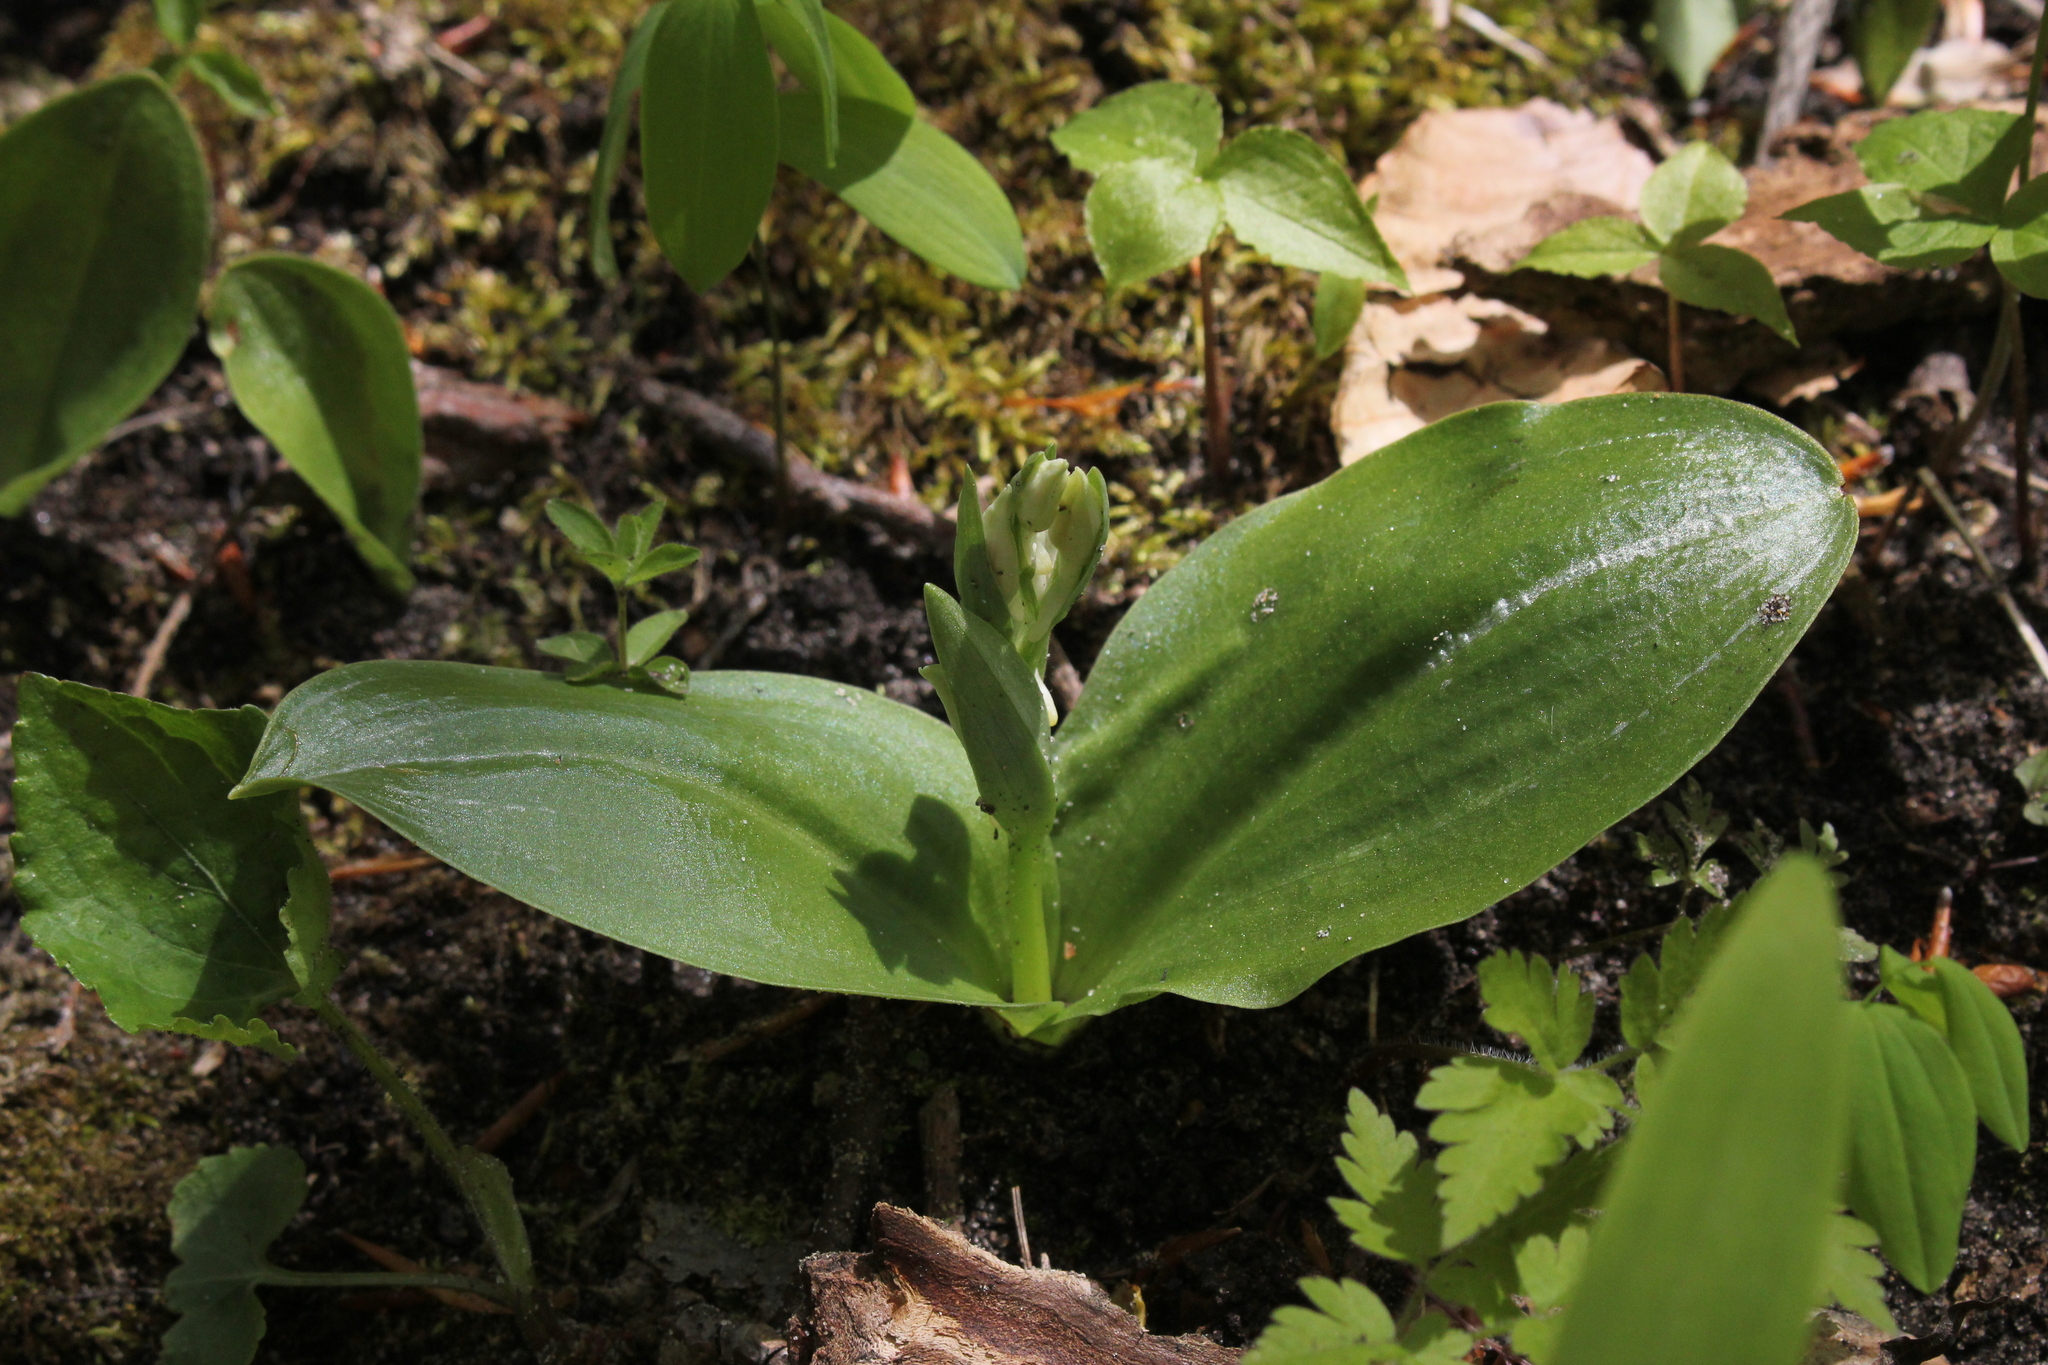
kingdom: Plantae
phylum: Tracheophyta
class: Liliopsida
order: Asparagales
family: Orchidaceae
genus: Galearis
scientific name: Galearis spectabilis
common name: Purple-hooded orchis
